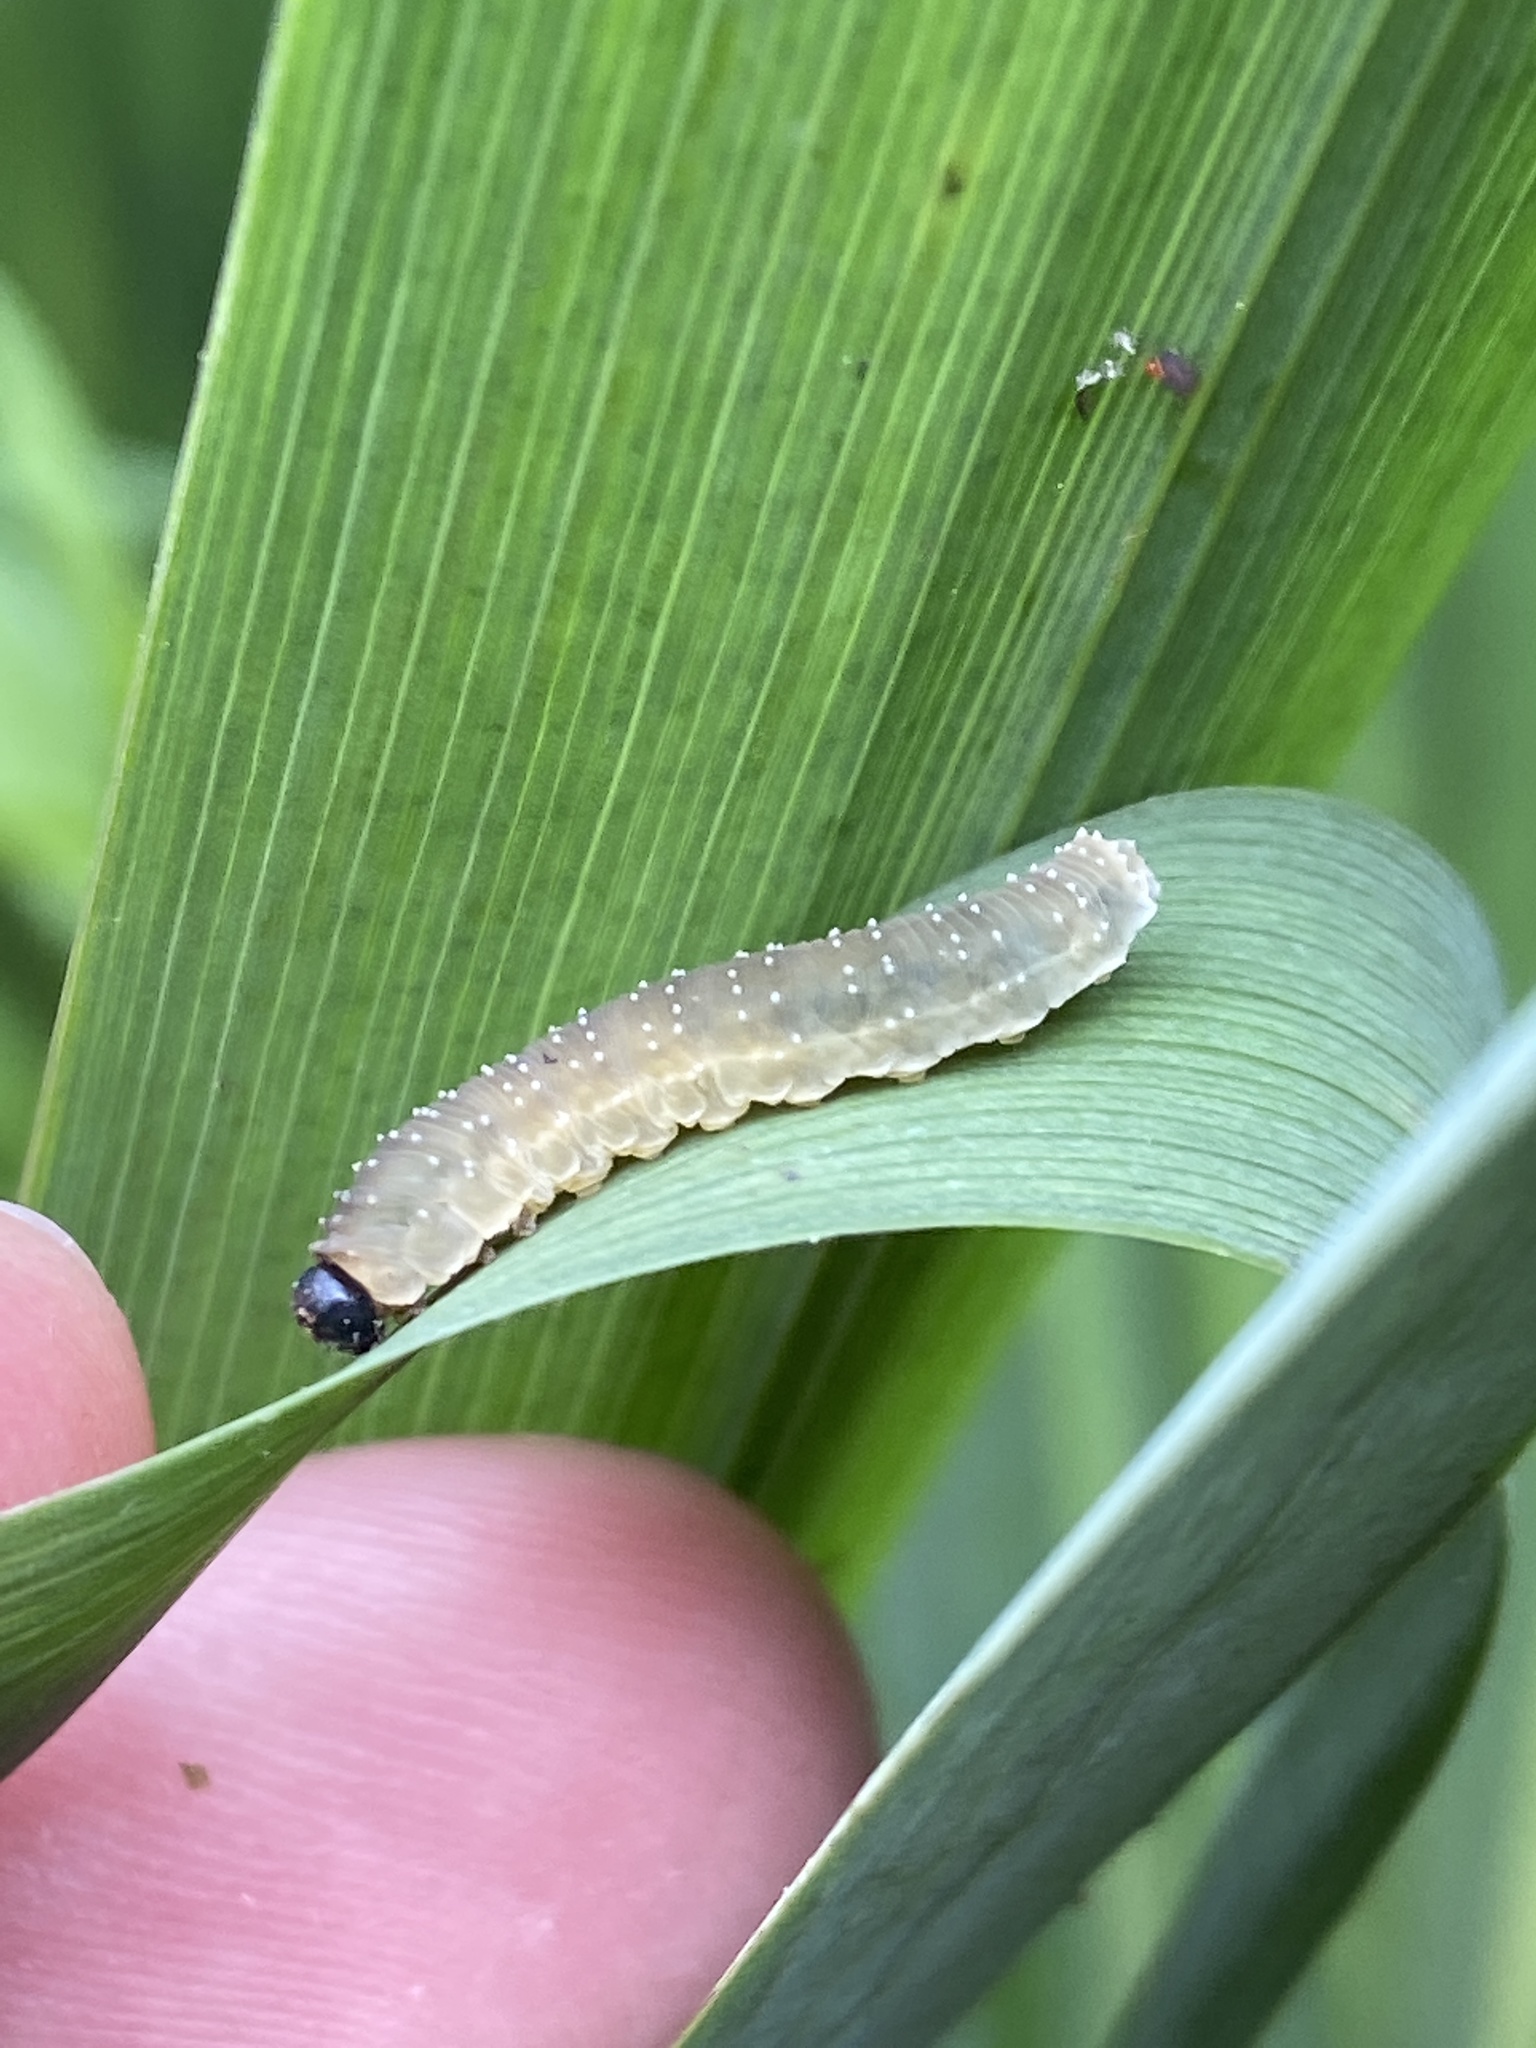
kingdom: Animalia
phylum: Arthropoda
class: Insecta
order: Hymenoptera
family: Tenthredinidae
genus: Rhadinoceraea
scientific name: Rhadinoceraea micans
